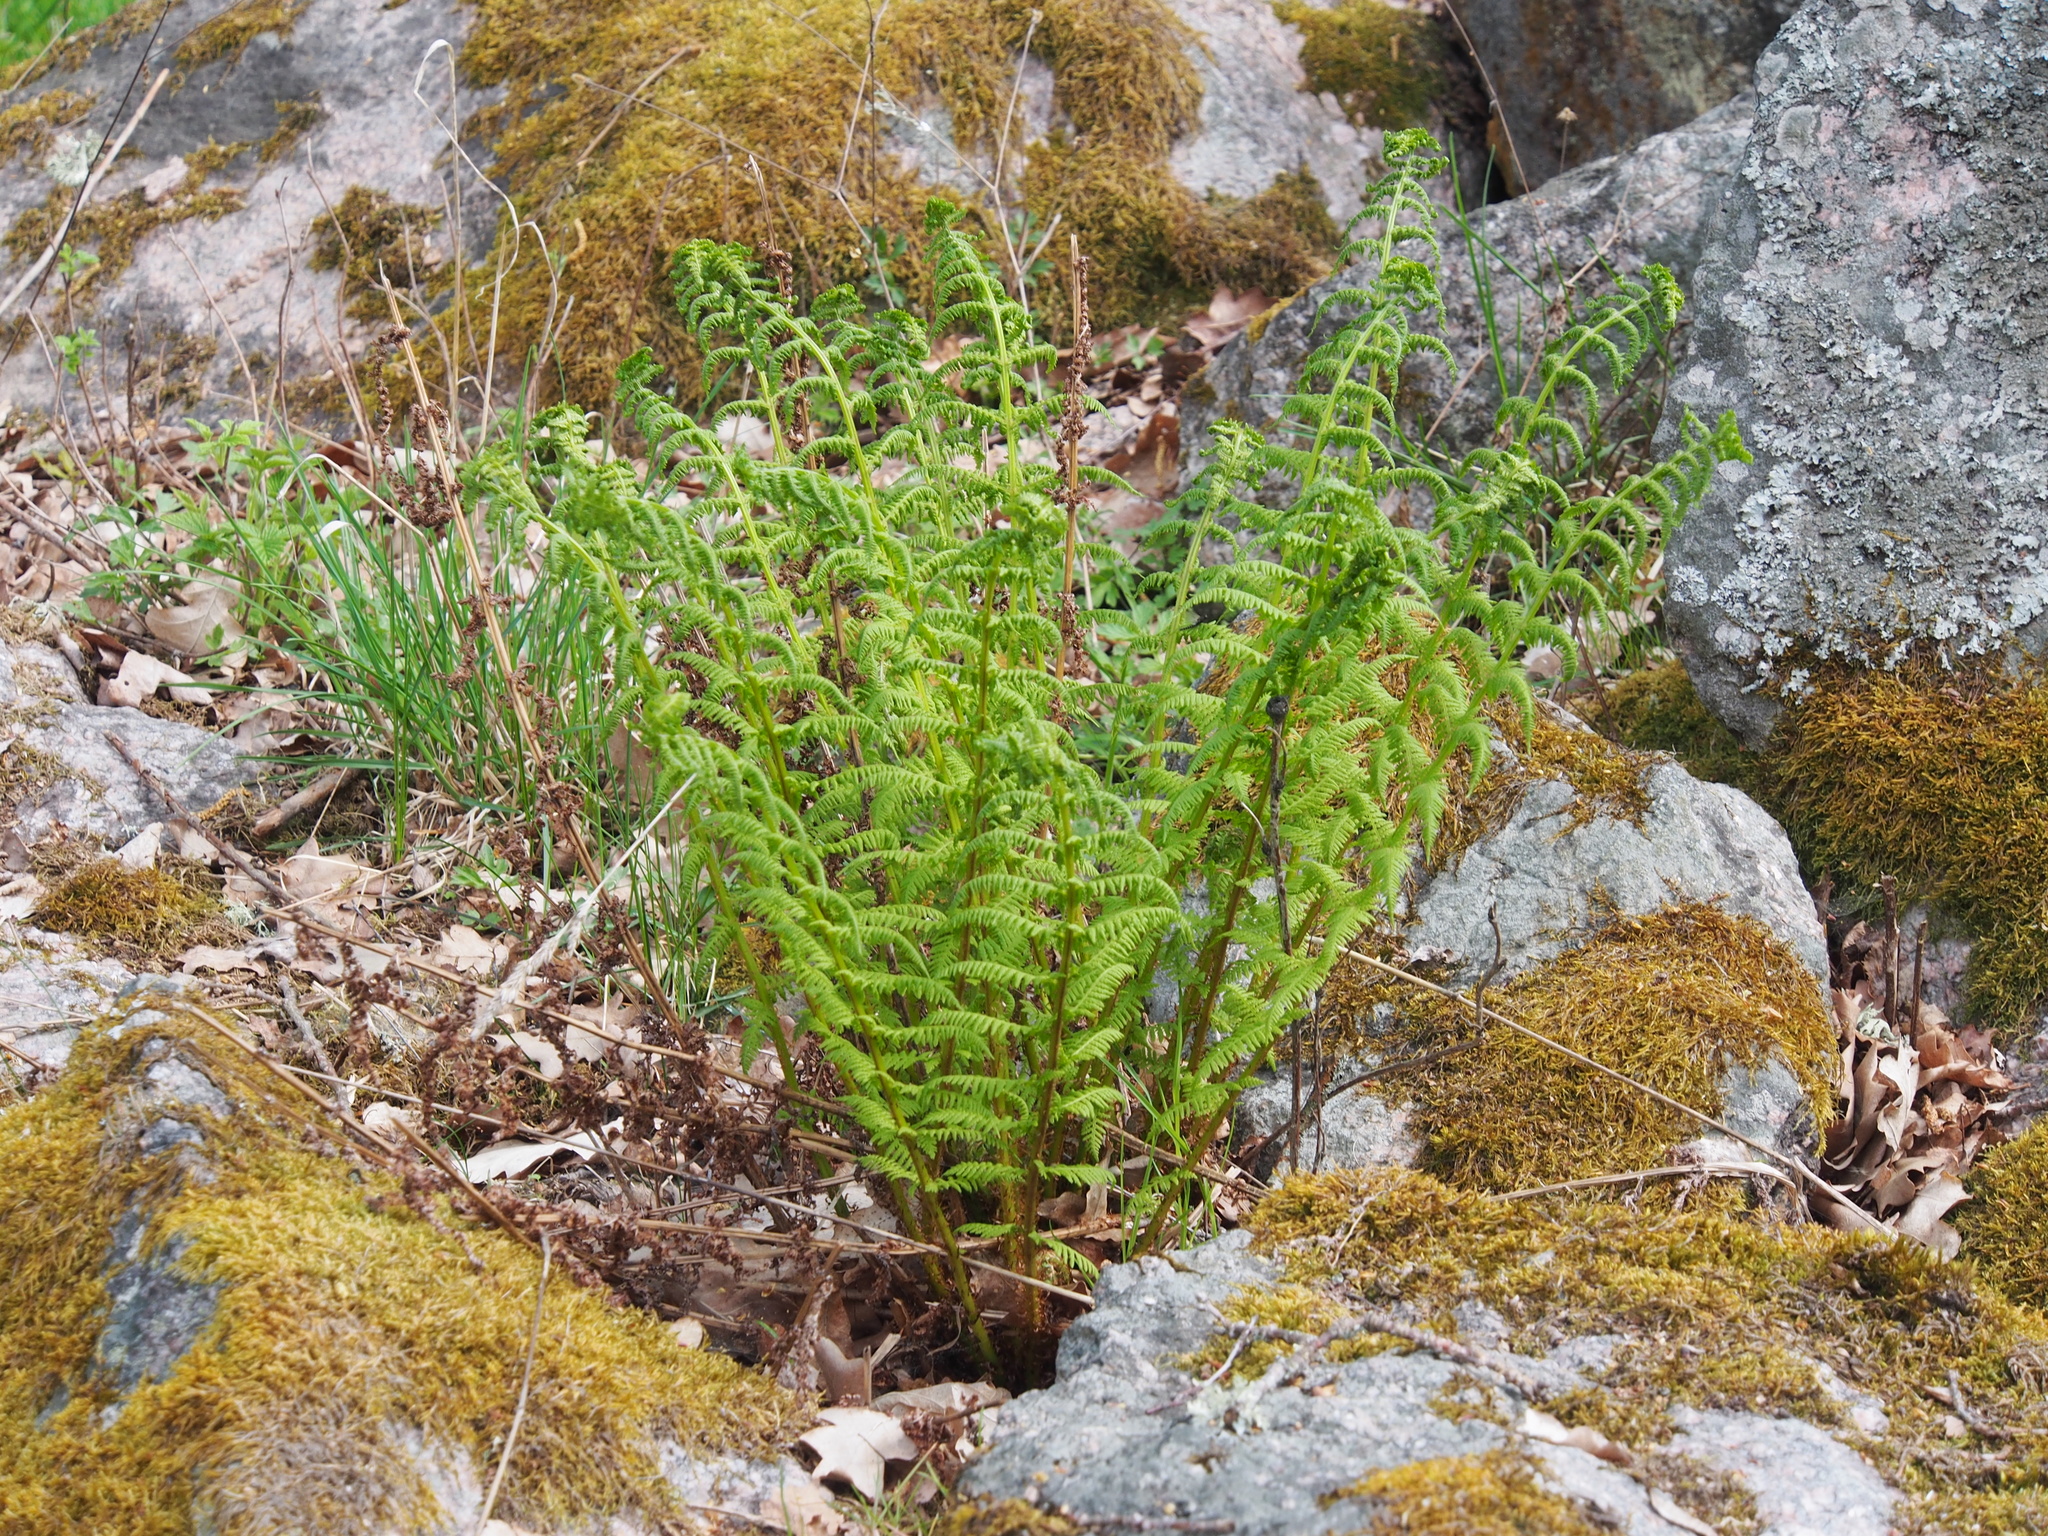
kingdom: Plantae
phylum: Tracheophyta
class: Polypodiopsida
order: Polypodiales
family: Dryopteridaceae
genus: Dryopteris
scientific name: Dryopteris filix-mas
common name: Male fern
